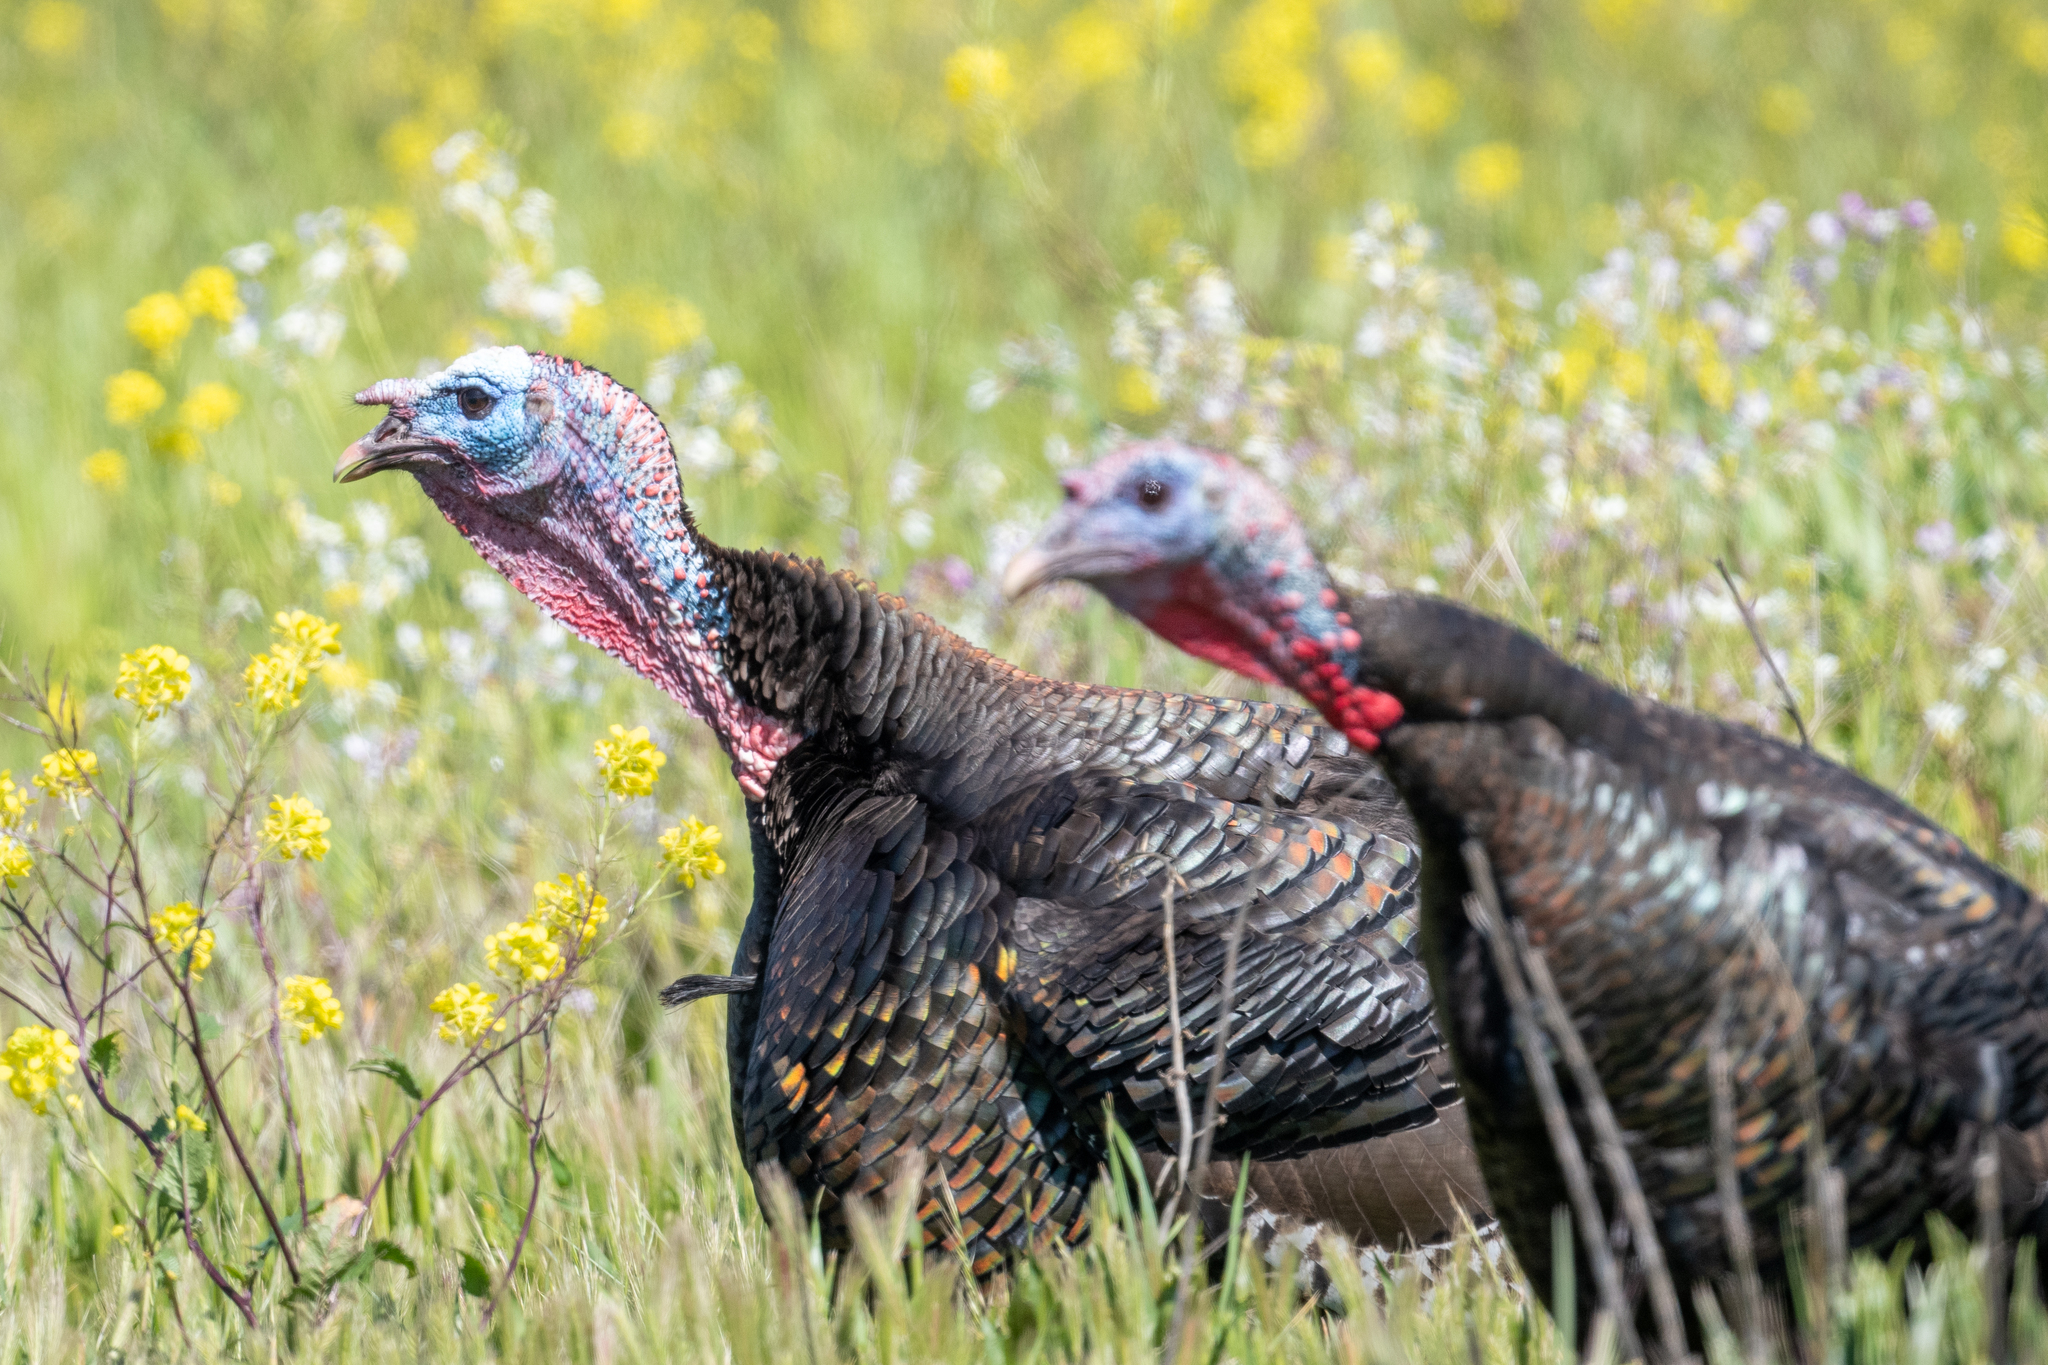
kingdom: Animalia
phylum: Chordata
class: Aves
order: Galliformes
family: Phasianidae
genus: Meleagris
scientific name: Meleagris gallopavo
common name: Wild turkey
